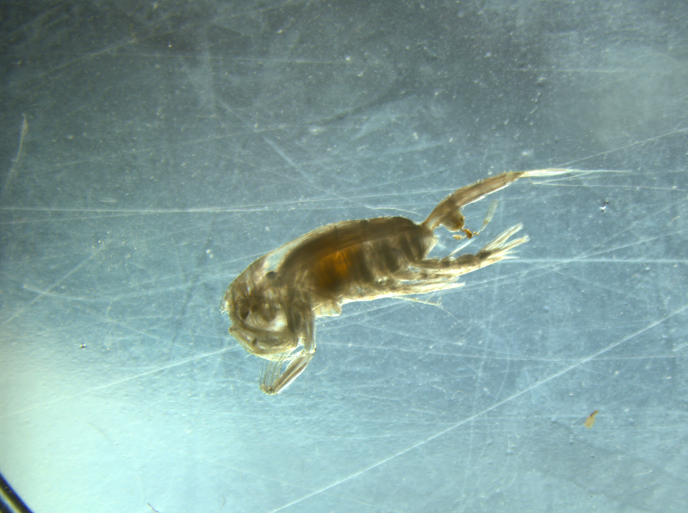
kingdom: Animalia
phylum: Arthropoda
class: Copepoda
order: Calanoida
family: Euchaetidae
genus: Paraeuchaeta
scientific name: Paraeuchaeta norvegica
